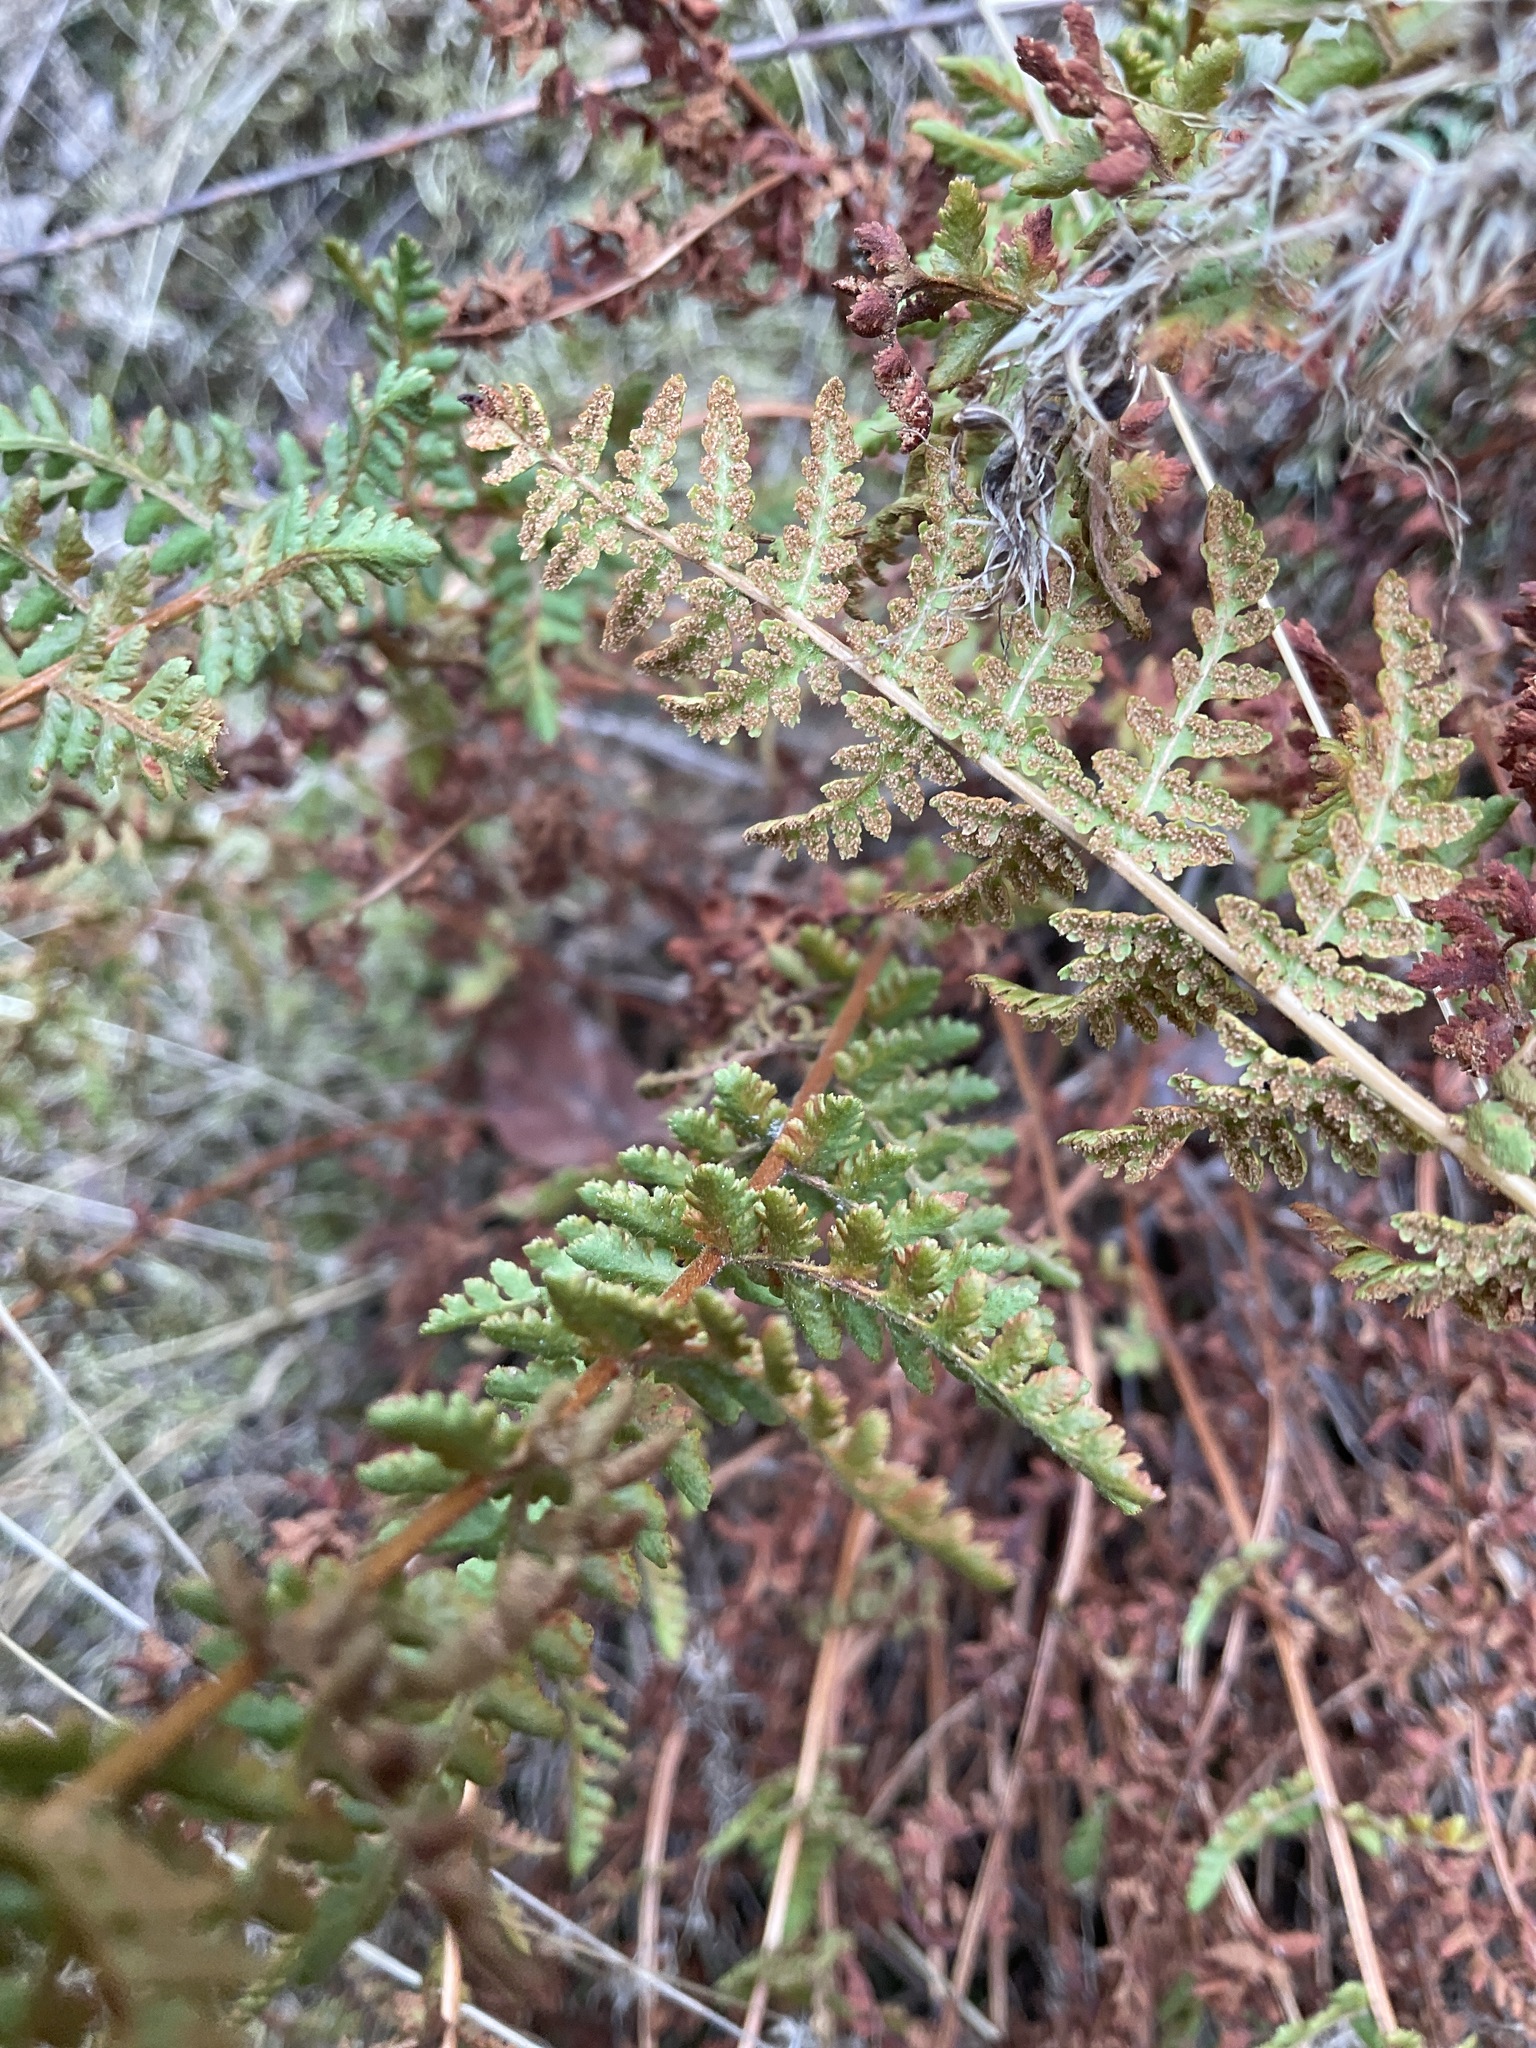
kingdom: Plantae
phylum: Tracheophyta
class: Polypodiopsida
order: Polypodiales
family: Woodsiaceae
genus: Physematium
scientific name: Physematium scopulinum
